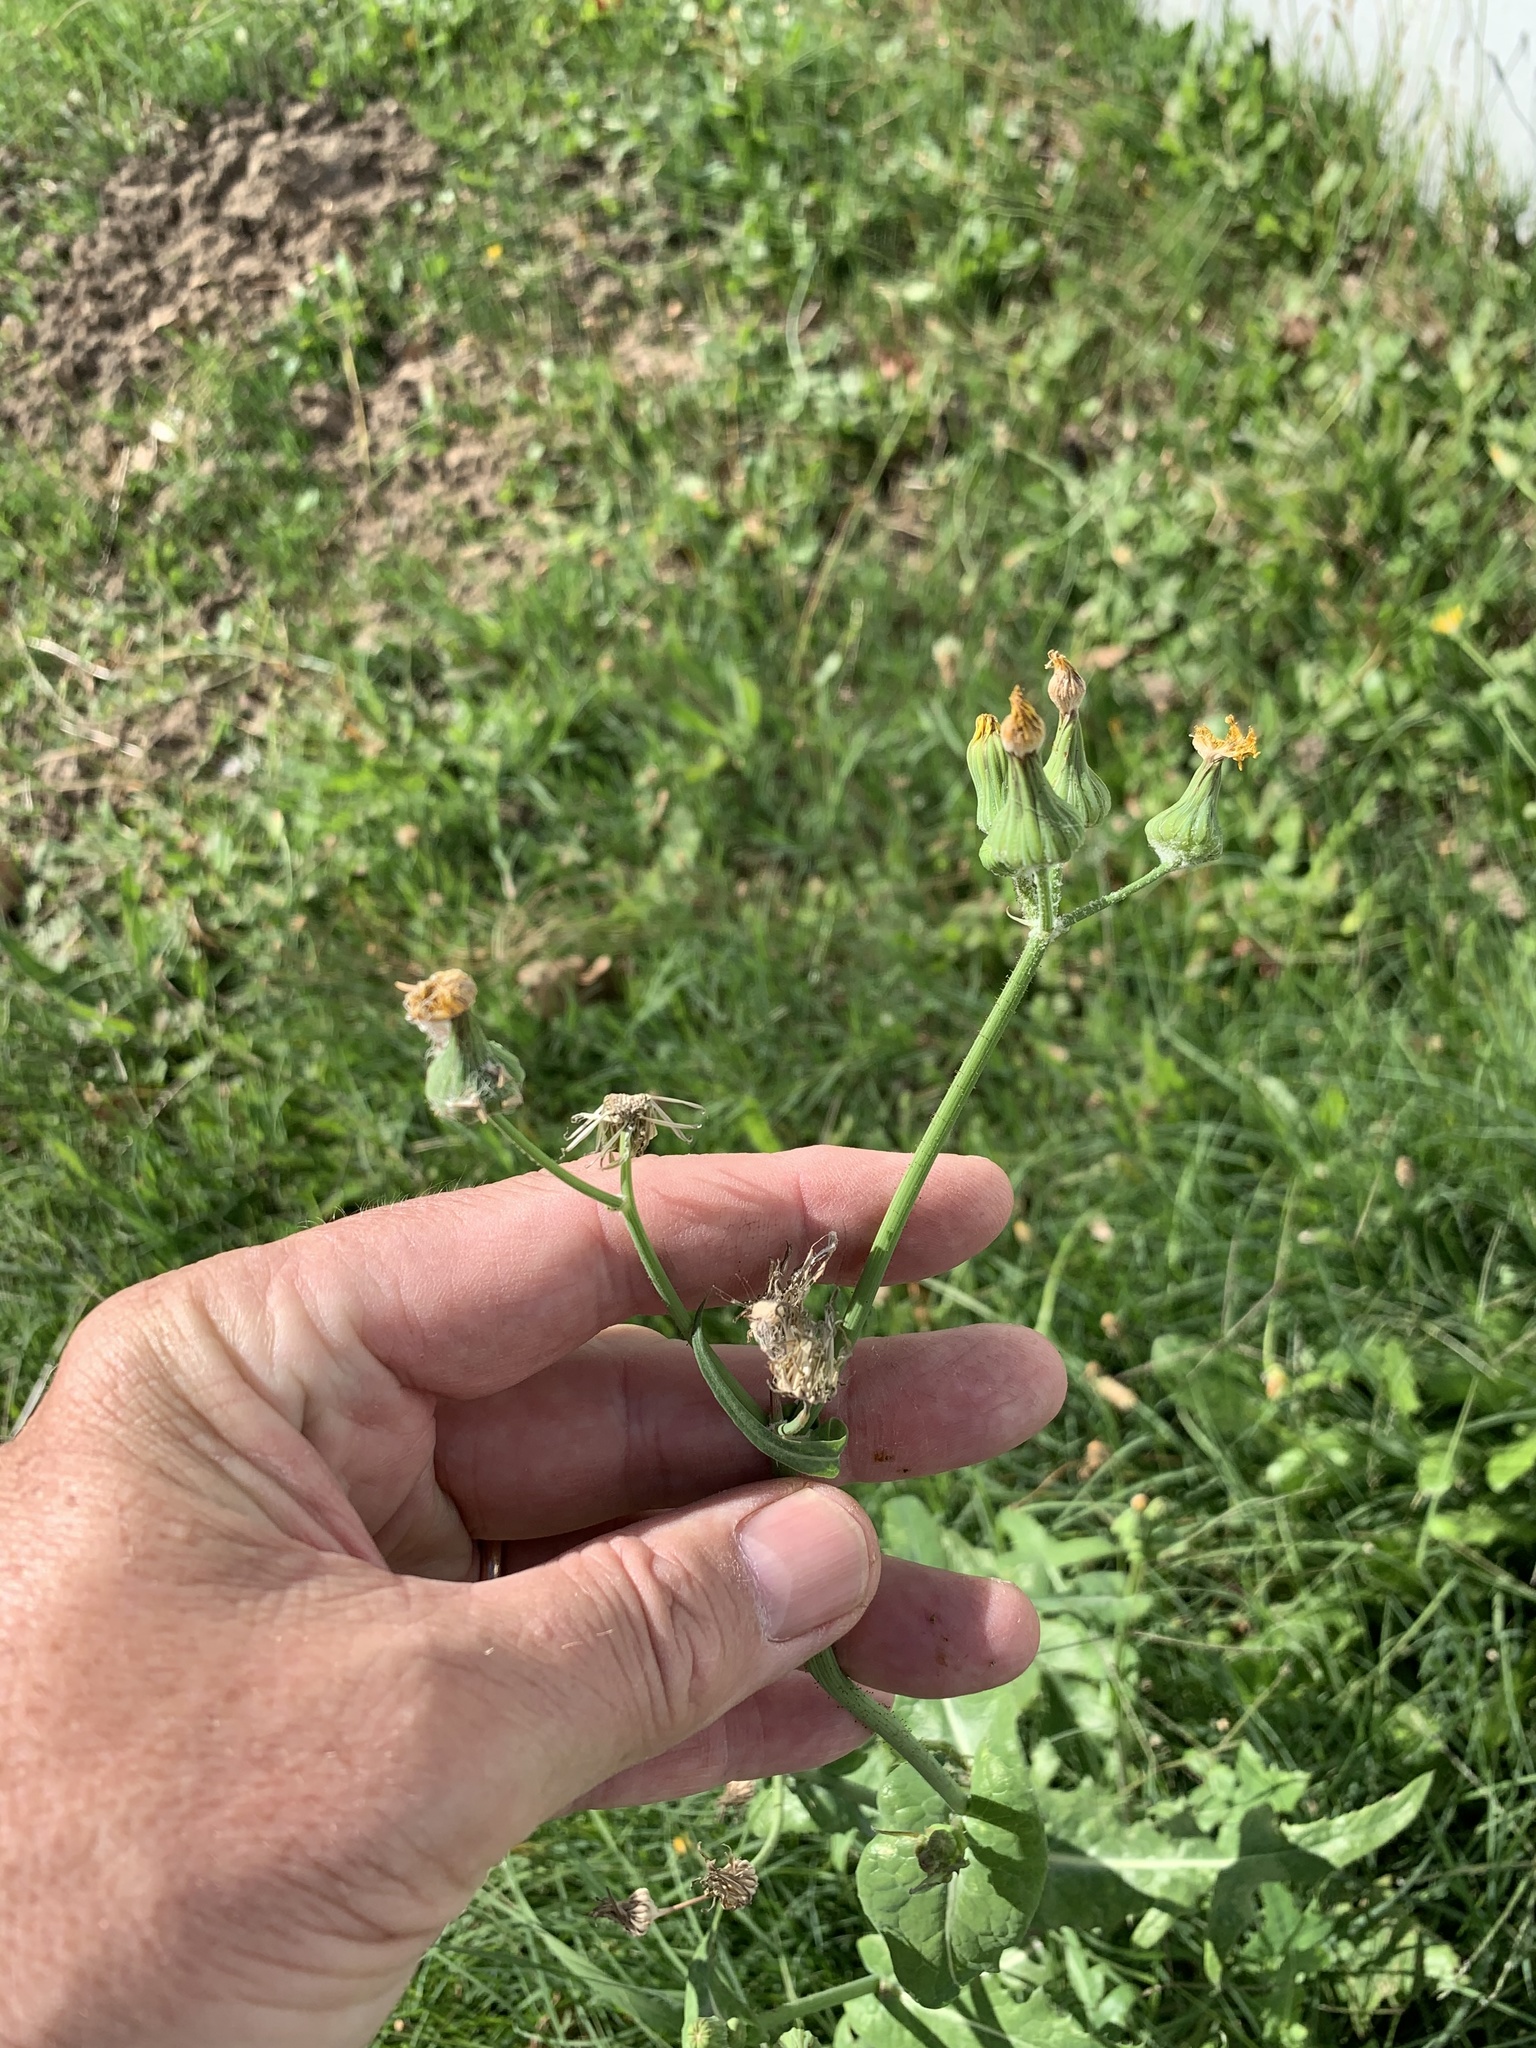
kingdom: Plantae
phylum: Tracheophyta
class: Magnoliopsida
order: Asterales
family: Asteraceae
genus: Sonchus
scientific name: Sonchus oleraceus
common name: Common sowthistle
